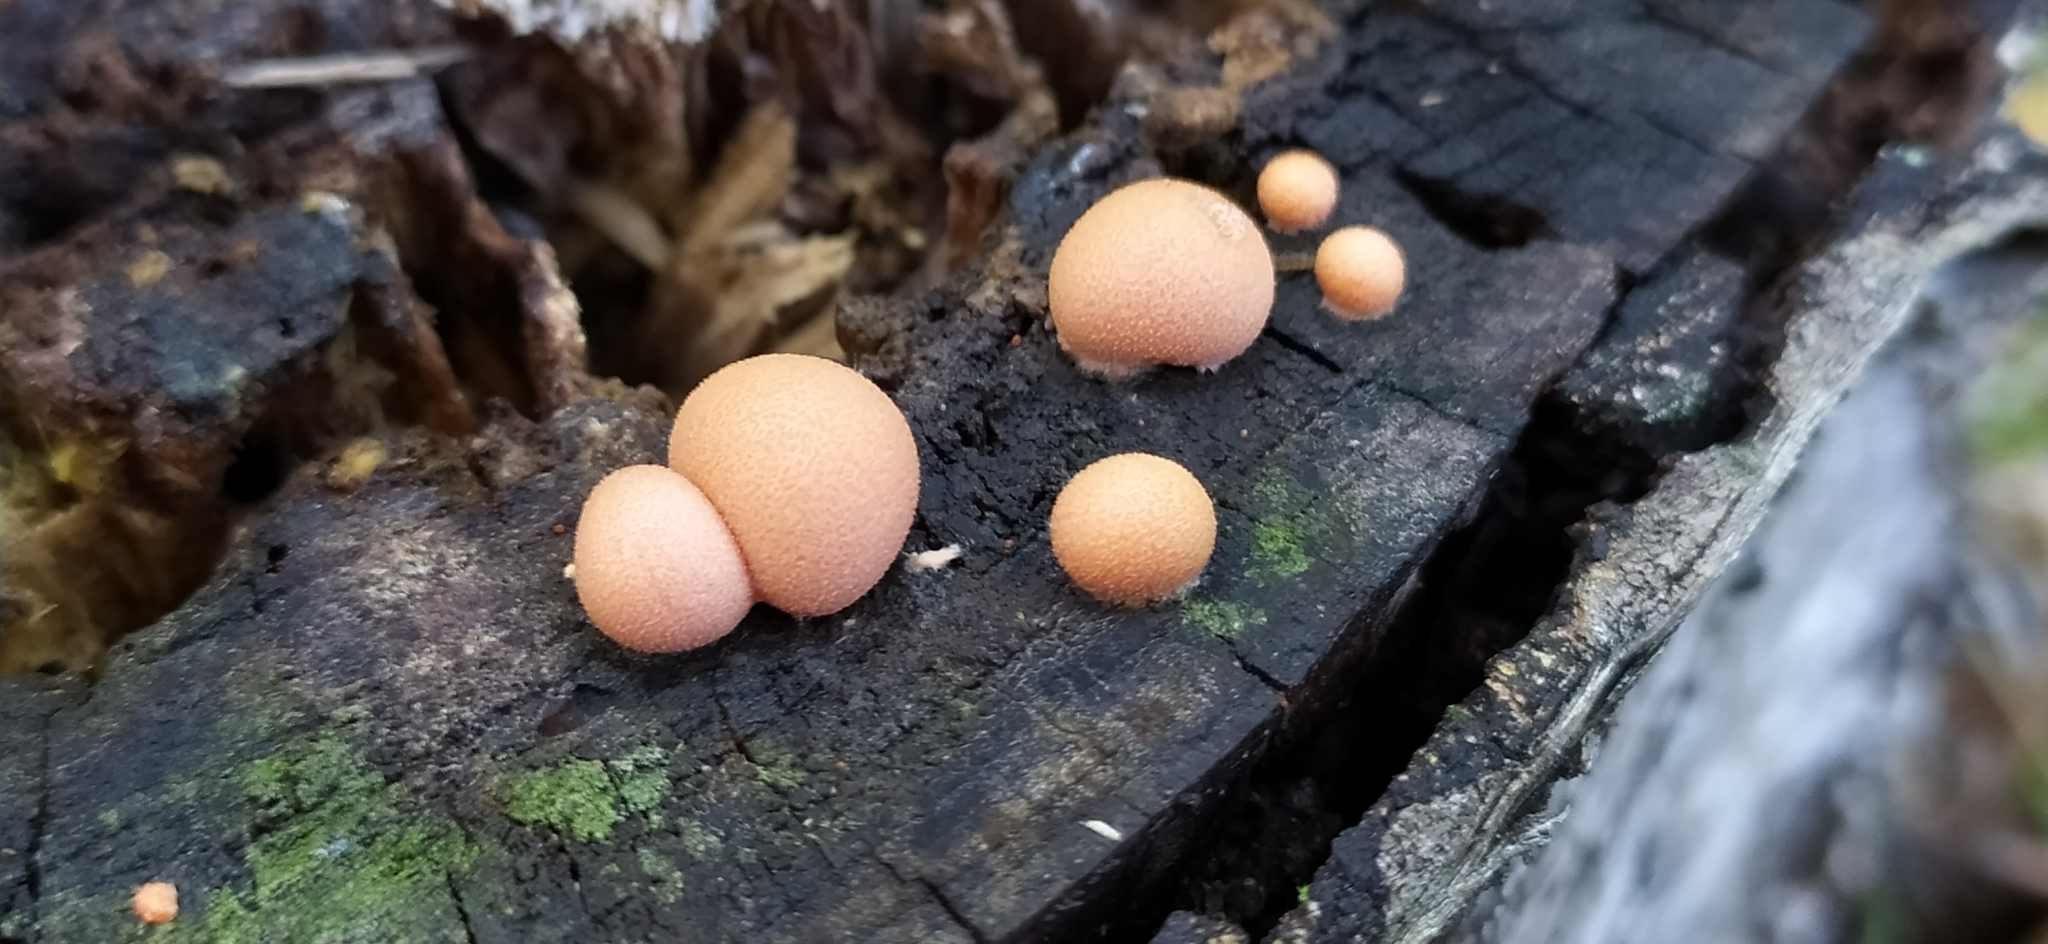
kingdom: Protozoa
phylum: Mycetozoa
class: Myxomycetes
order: Cribrariales
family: Tubiferaceae
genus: Lycogala
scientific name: Lycogala epidendrum
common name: Wolf's milk
